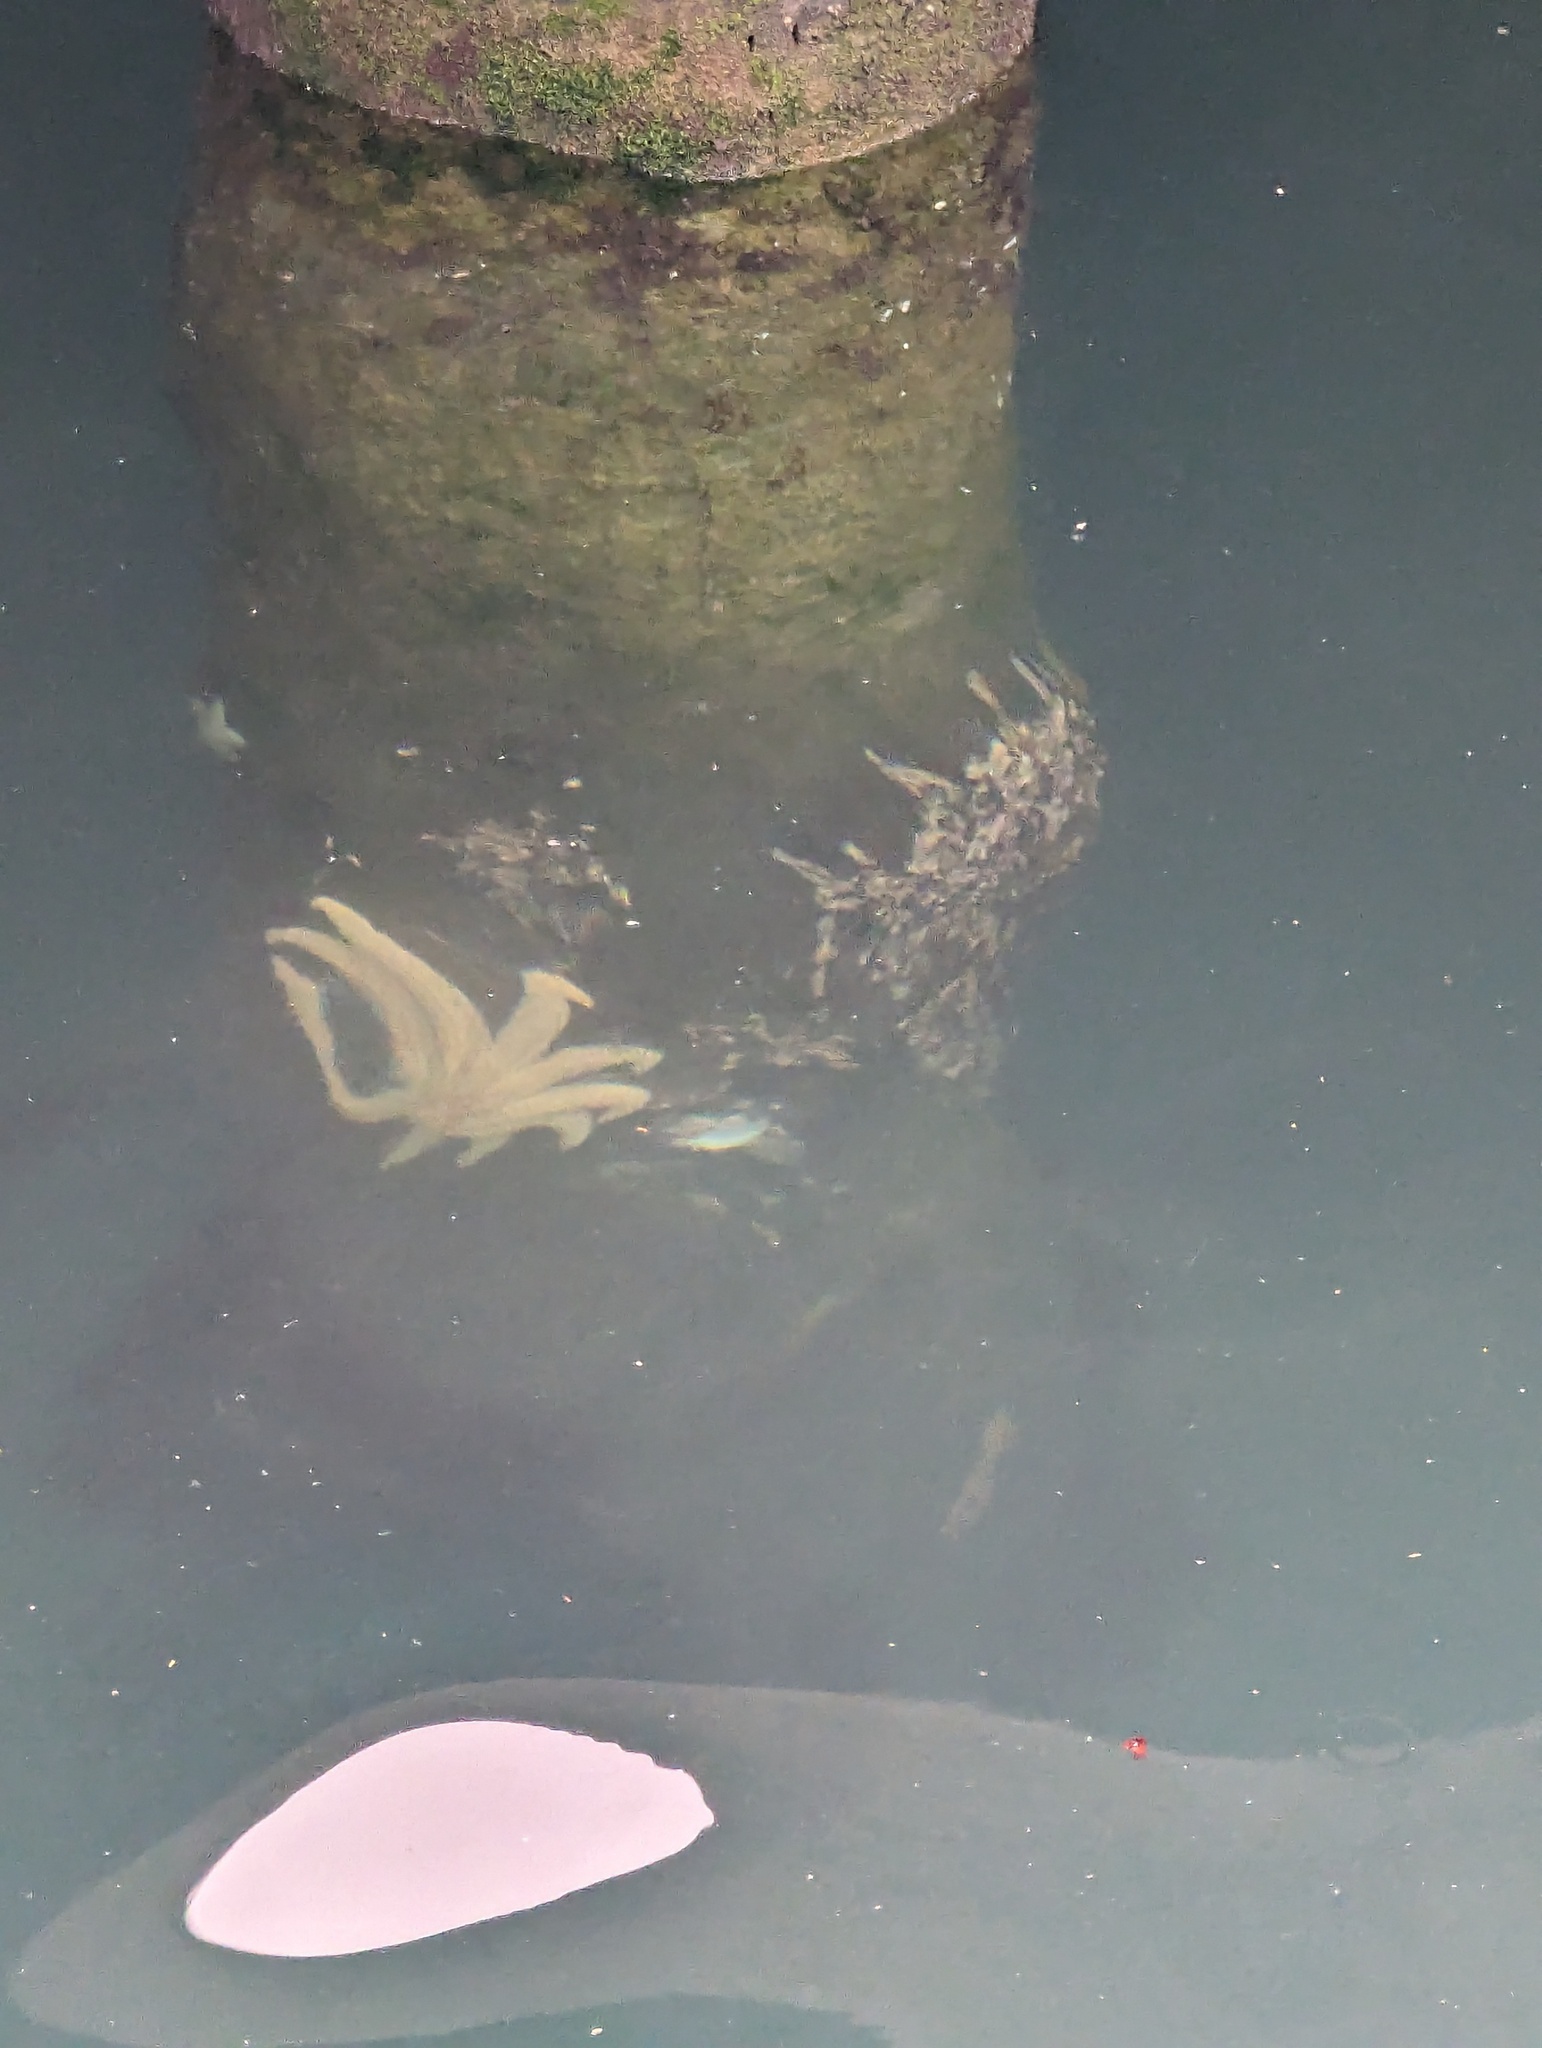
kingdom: Animalia
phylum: Echinodermata
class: Asteroidea
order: Forcipulatida
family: Asteriidae
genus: Coscinasterias
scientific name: Coscinasterias muricata
